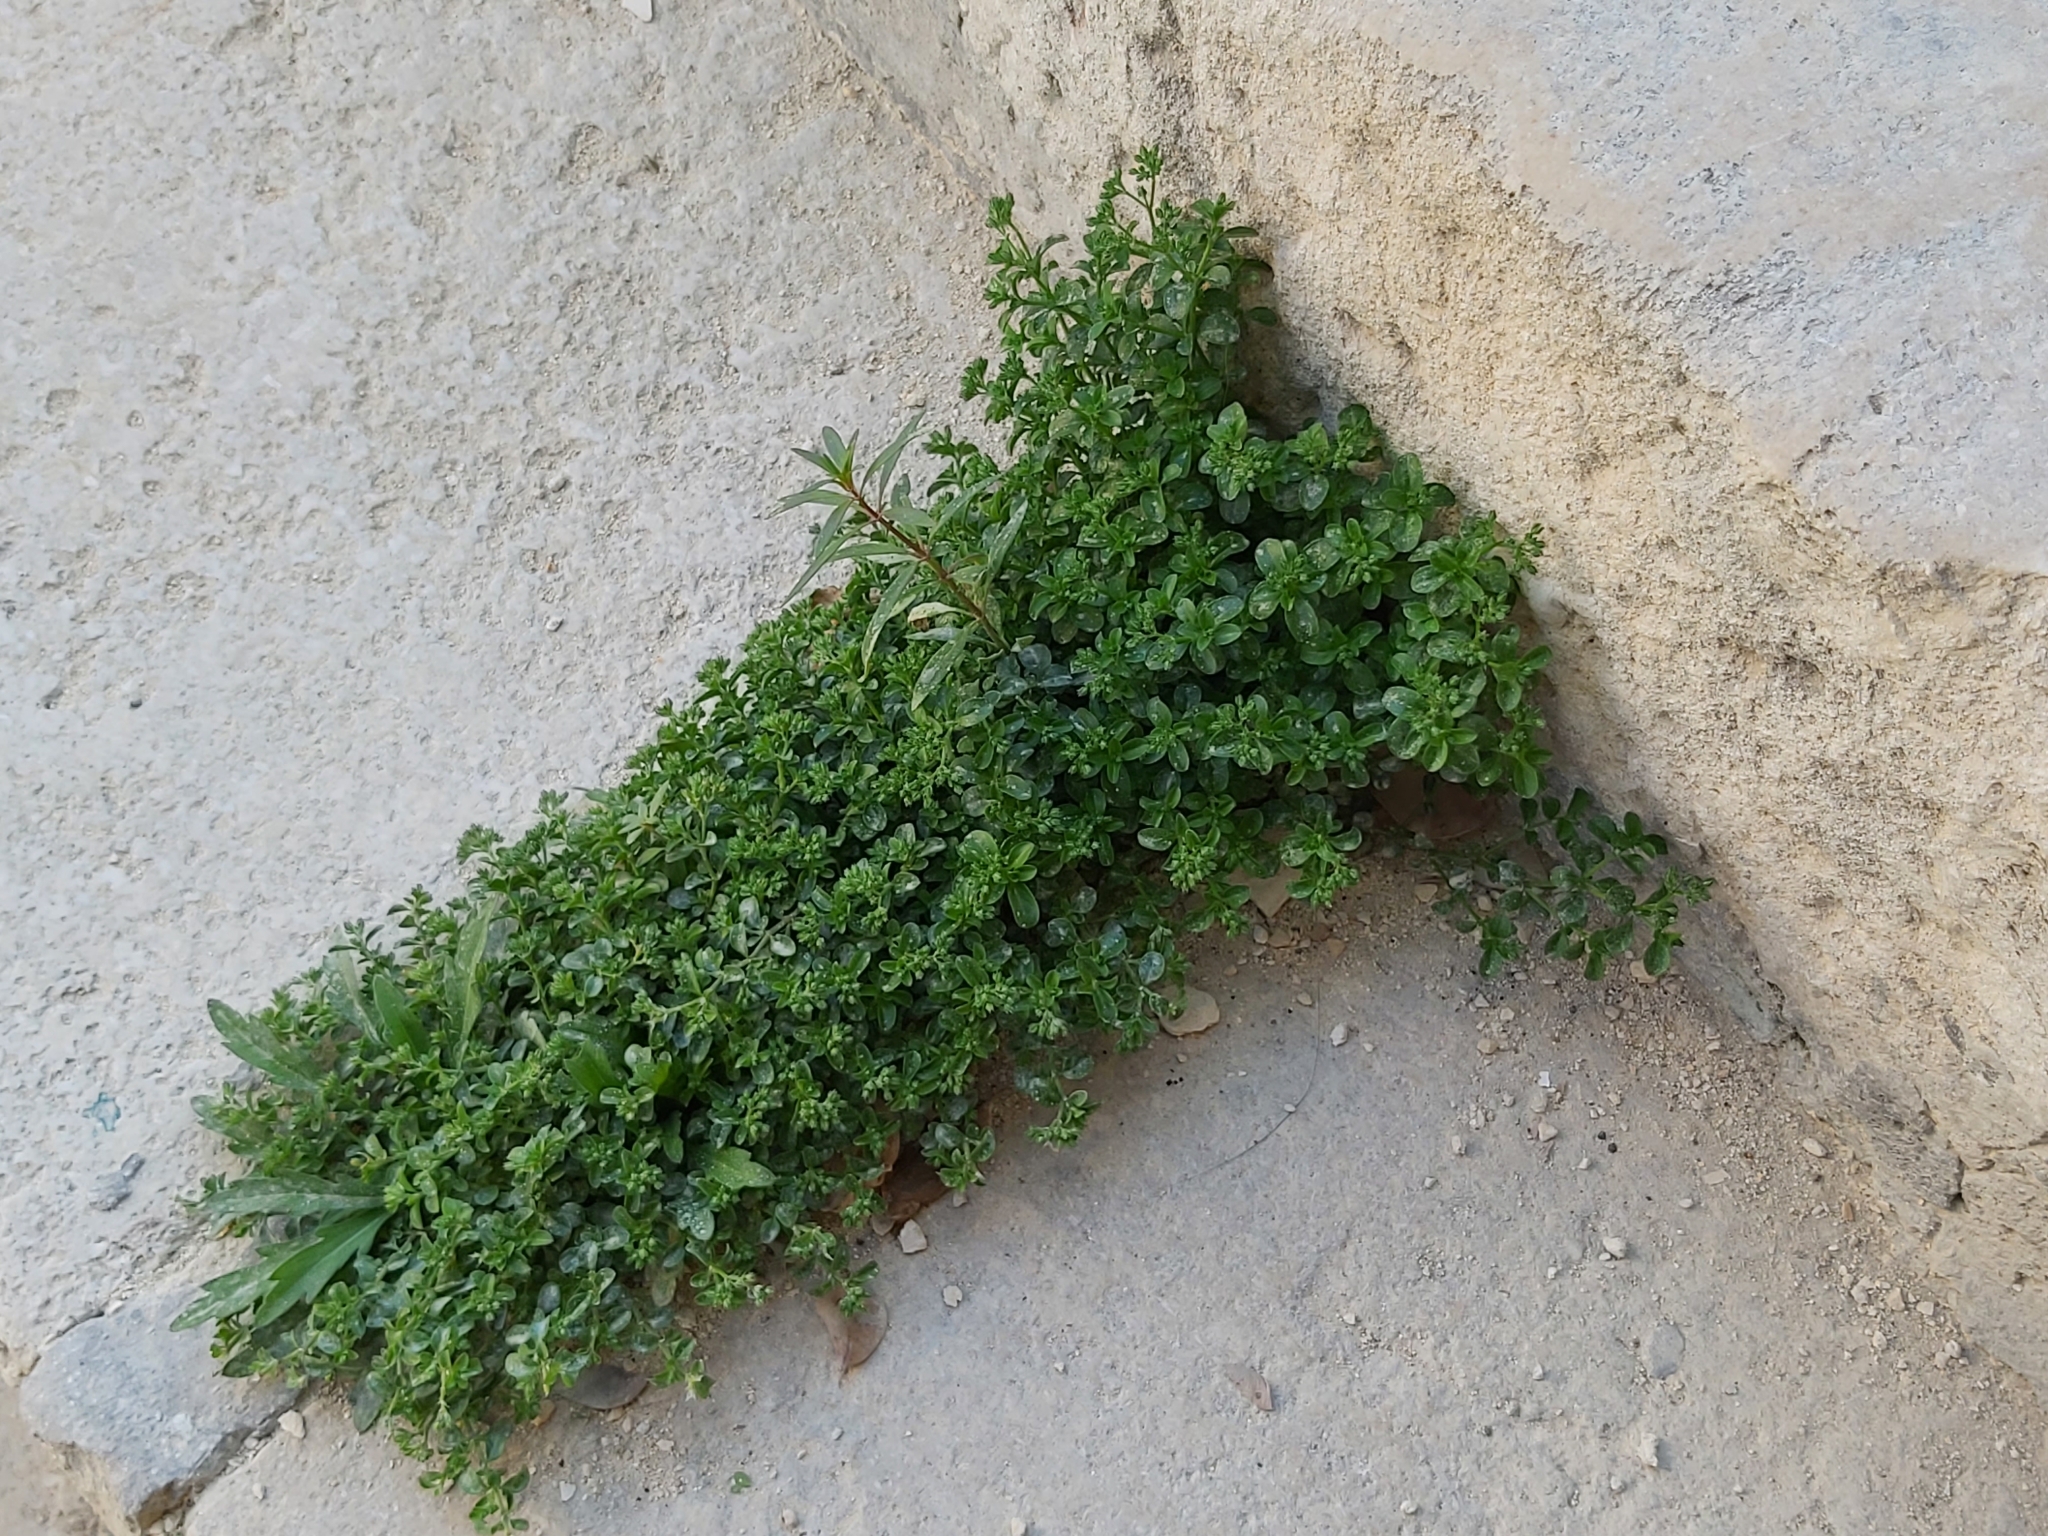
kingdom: Plantae
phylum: Tracheophyta
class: Magnoliopsida
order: Caryophyllales
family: Caryophyllaceae
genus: Polycarpon
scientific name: Polycarpon tetraphyllum
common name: Four-leaved all-seed
